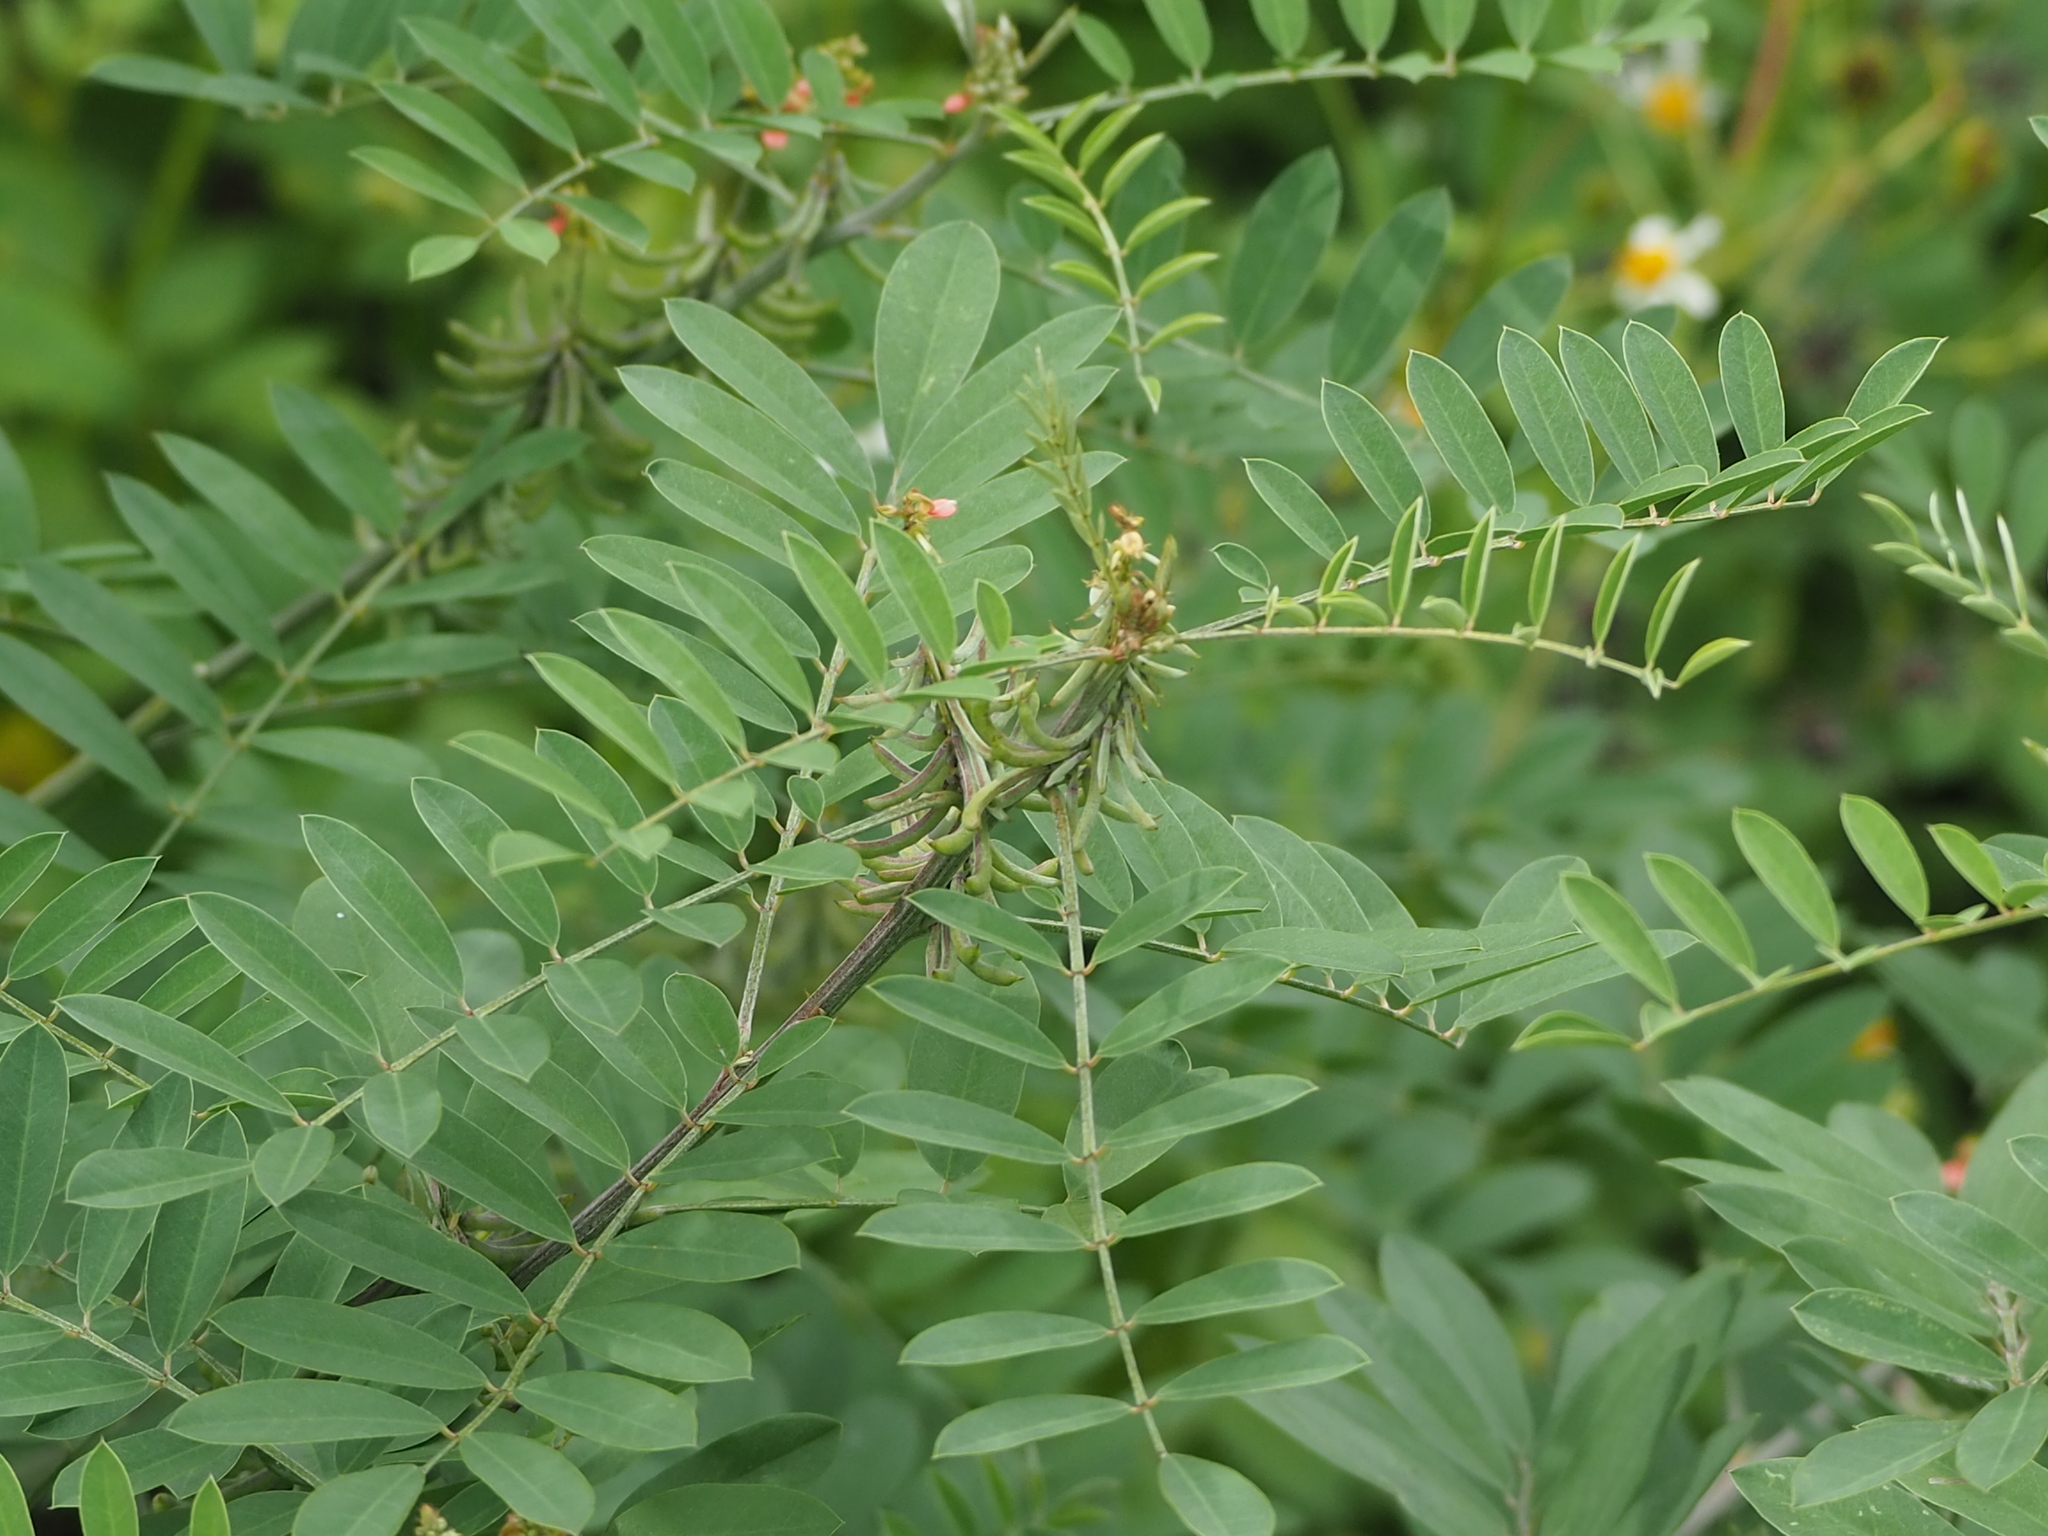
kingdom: Plantae
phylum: Tracheophyta
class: Magnoliopsida
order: Fabales
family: Fabaceae
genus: Indigofera
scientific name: Indigofera suffruticosa
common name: Anil de pasto
